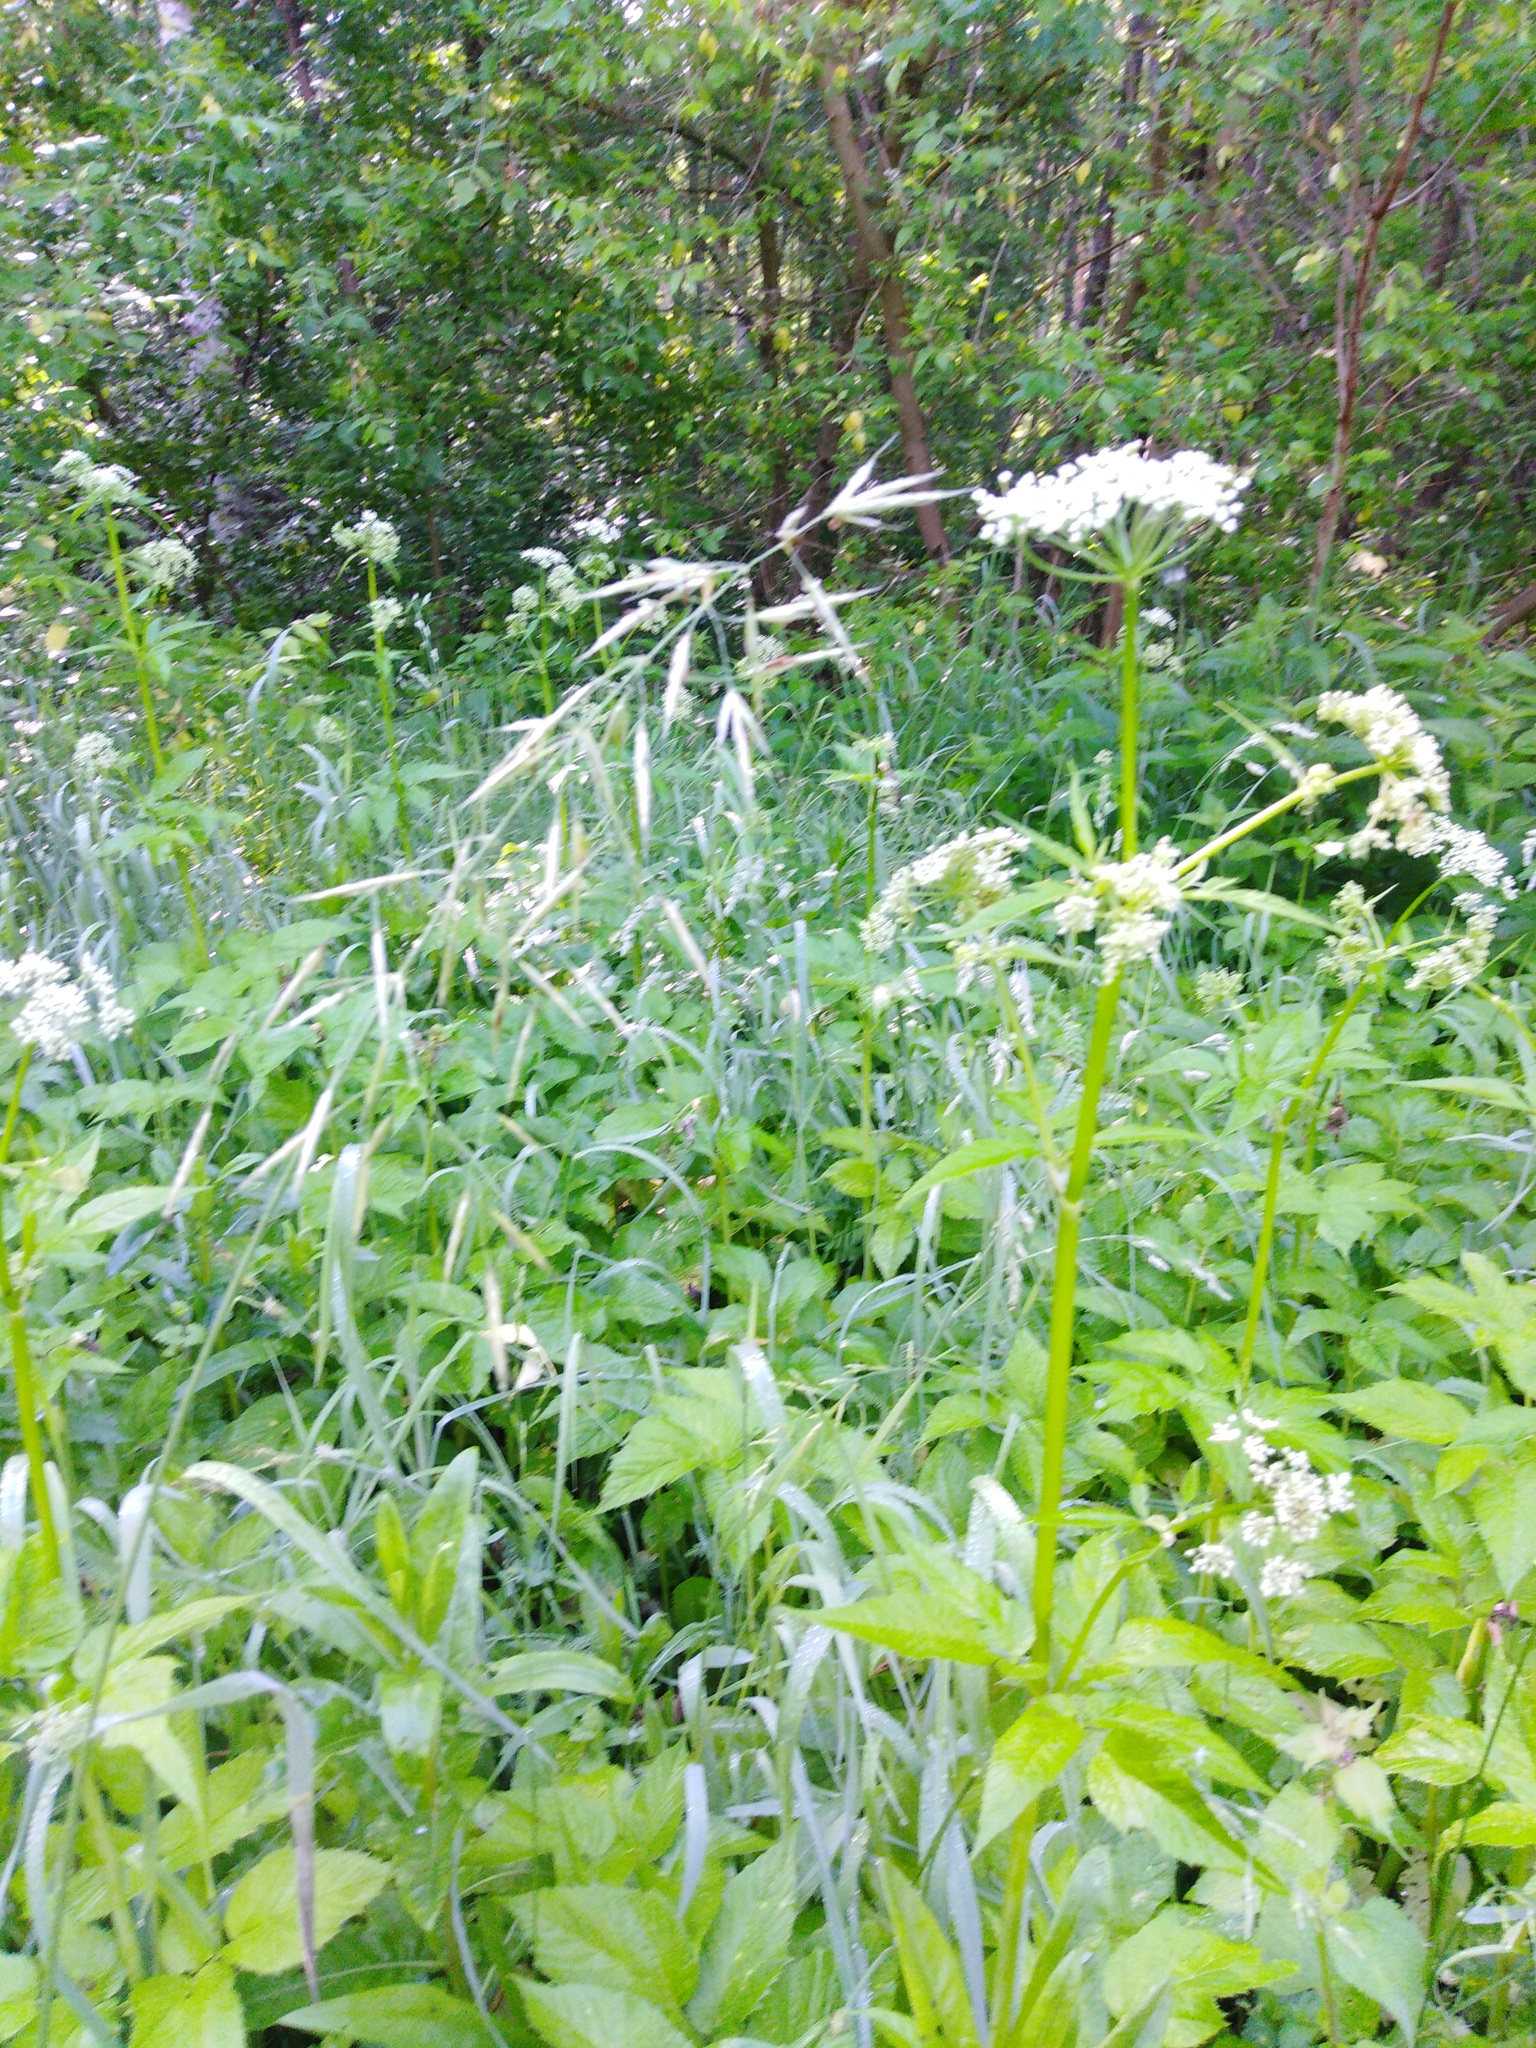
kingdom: Plantae
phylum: Tracheophyta
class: Magnoliopsida
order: Apiales
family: Apiaceae
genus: Aegopodium
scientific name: Aegopodium podagraria
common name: Ground-elder
